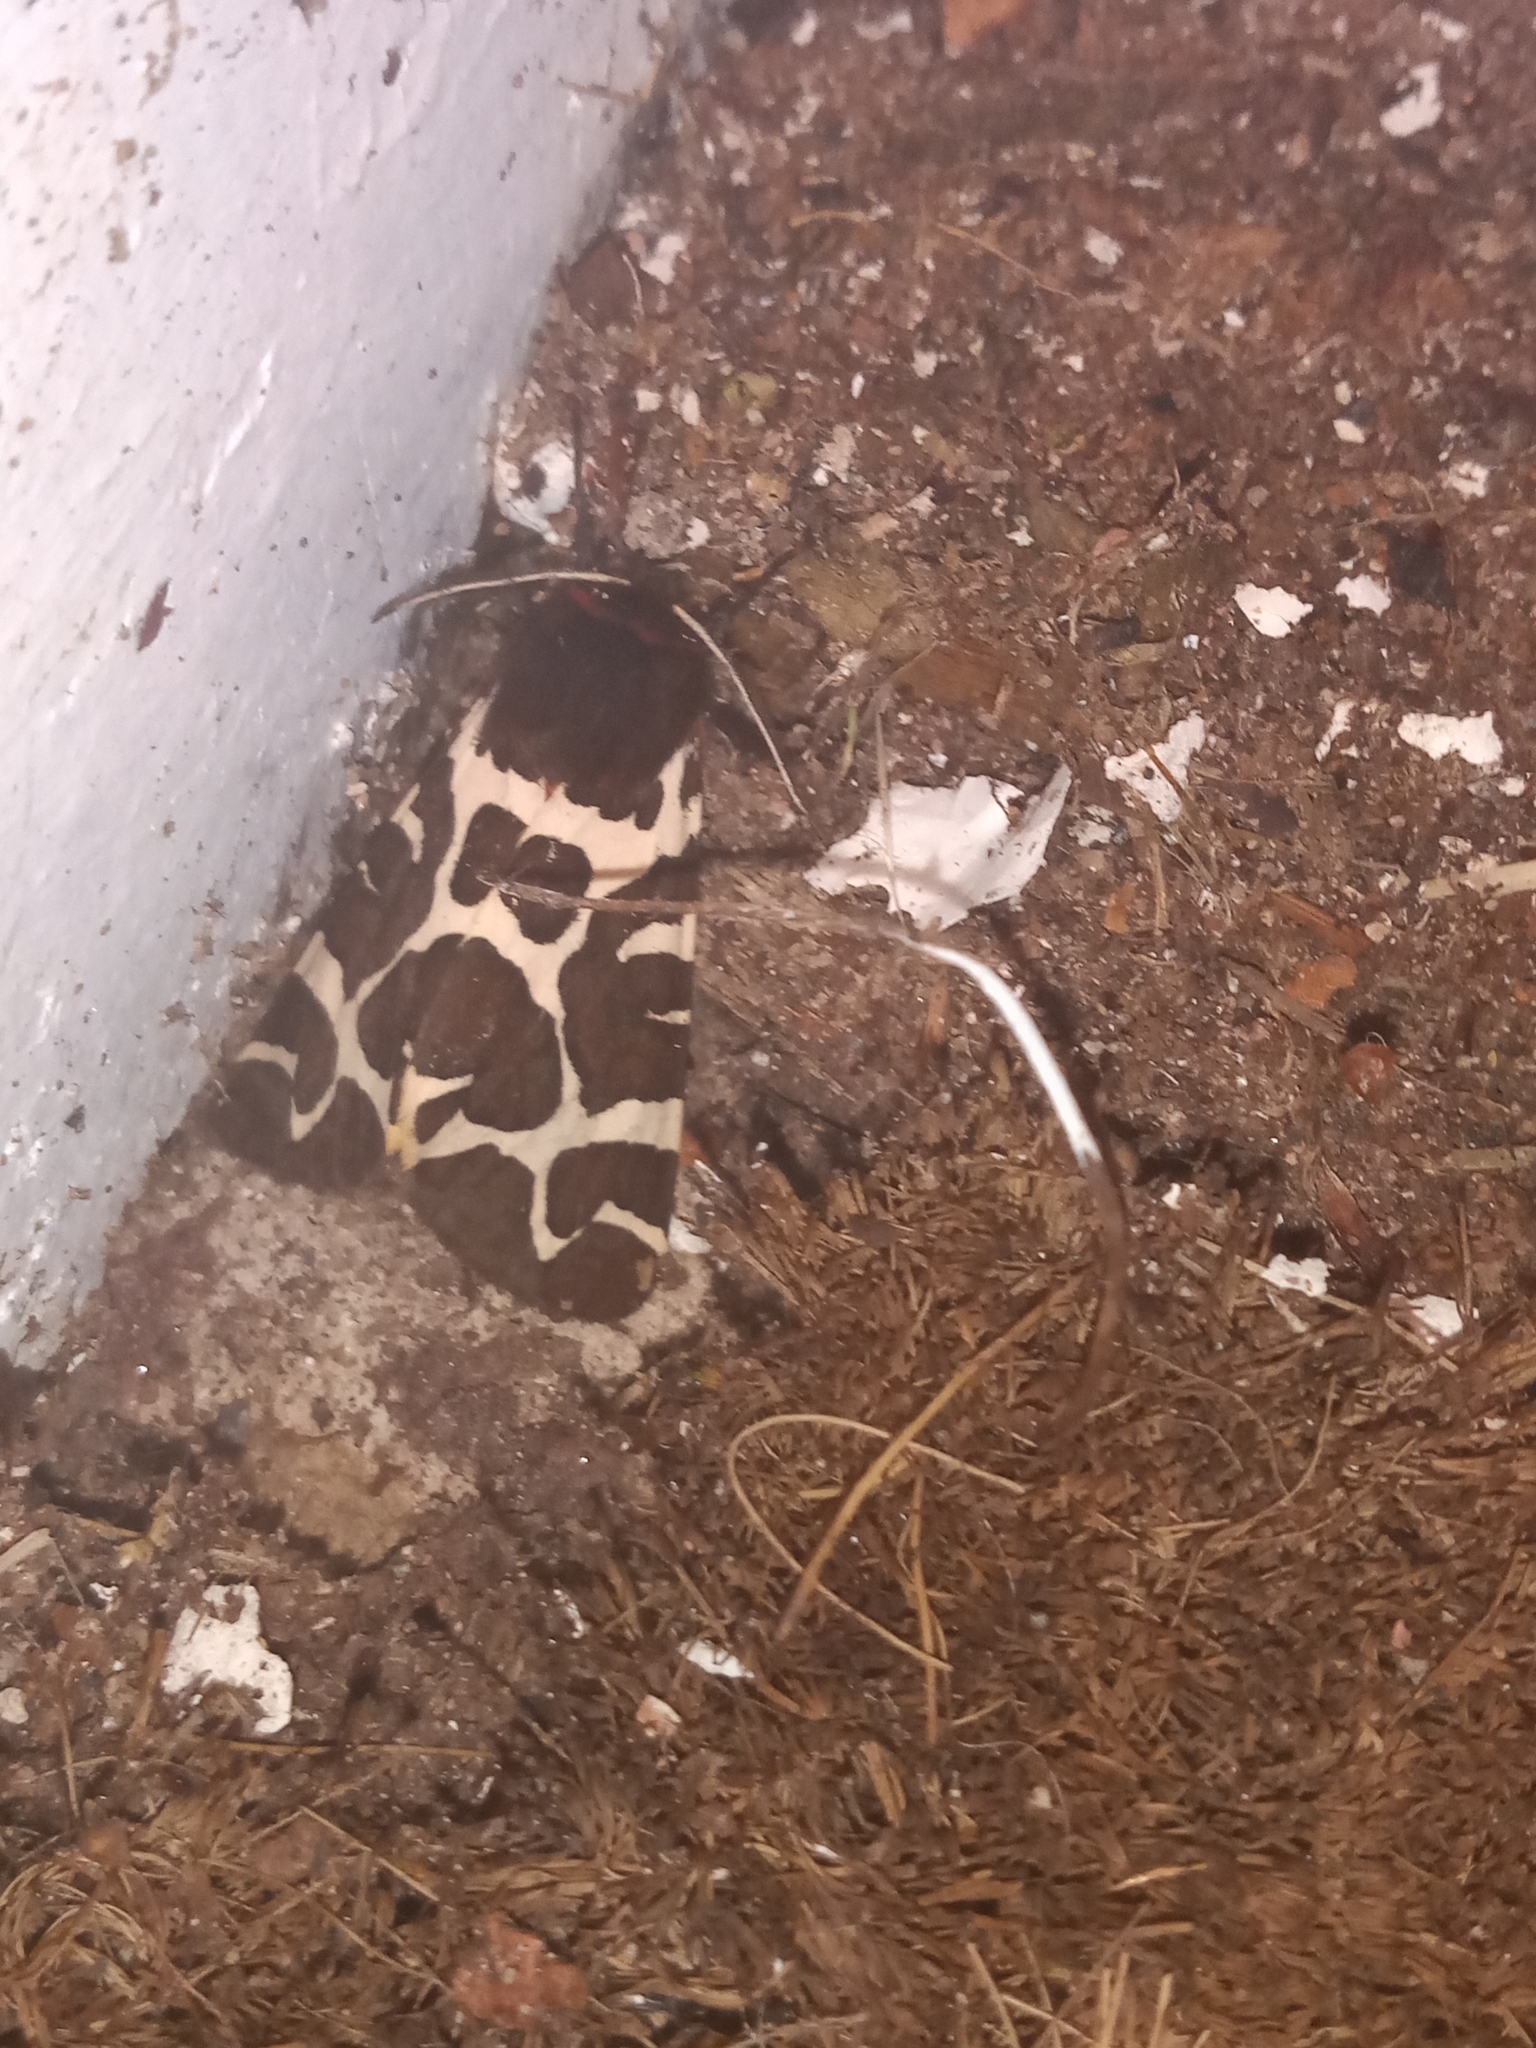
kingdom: Animalia
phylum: Arthropoda
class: Insecta
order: Lepidoptera
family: Erebidae
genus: Arctia
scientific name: Arctia caja
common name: Garden tiger
